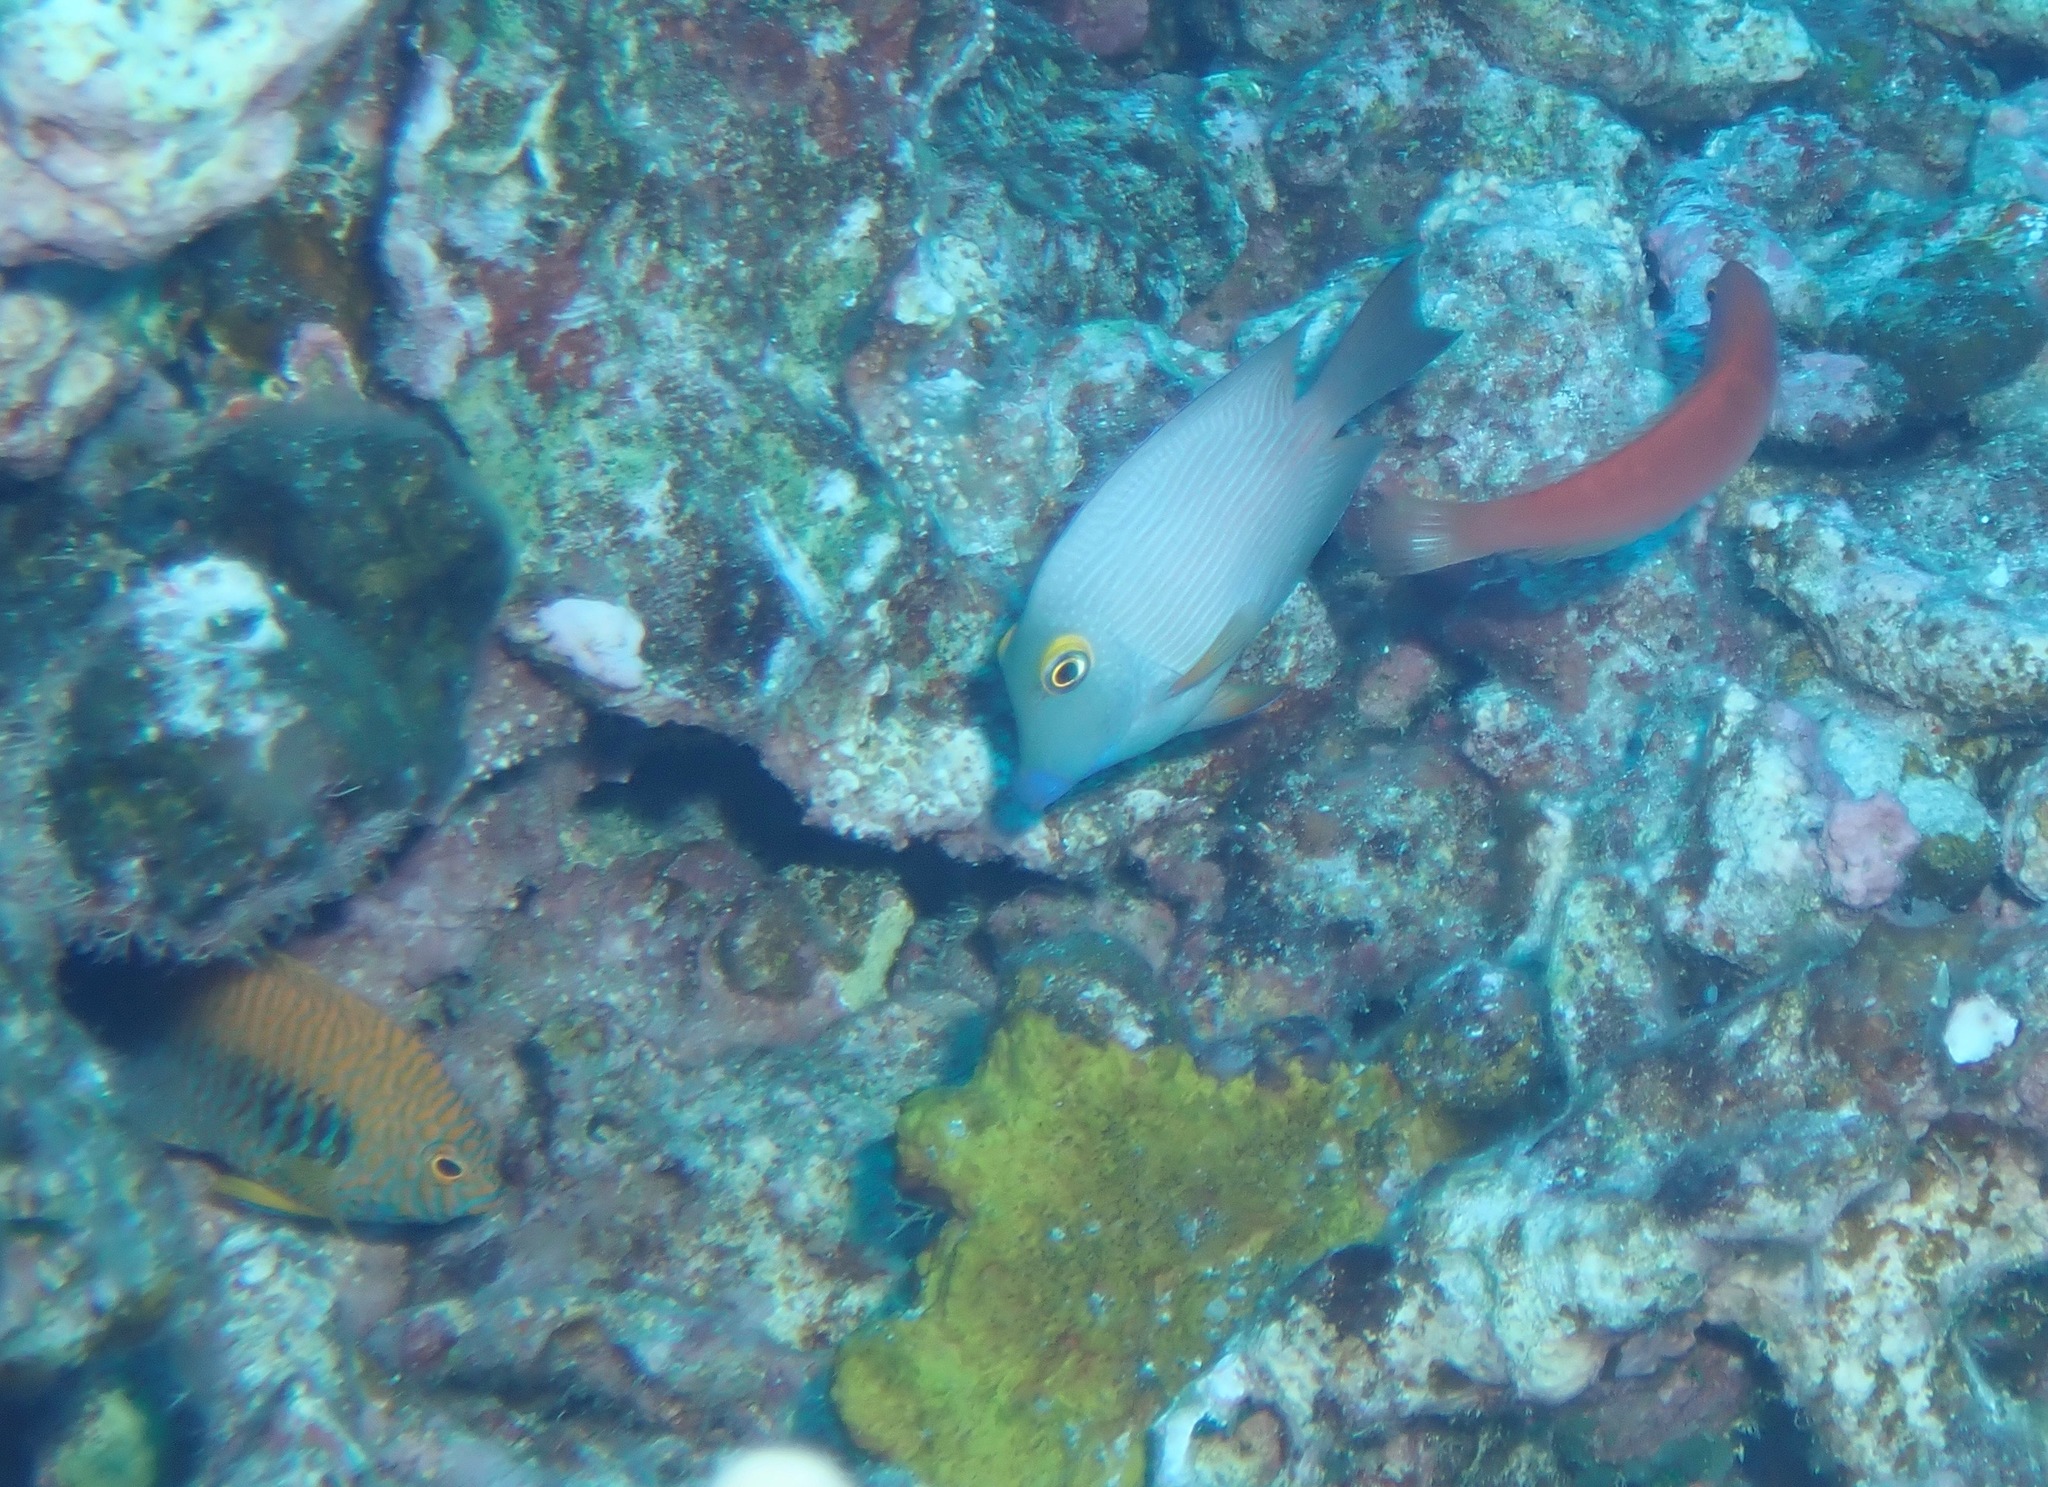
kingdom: Animalia
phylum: Chordata
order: Perciformes
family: Labridae
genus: Pseudojuloides
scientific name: Pseudojuloides cerasinus
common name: Smalltail wrasse
